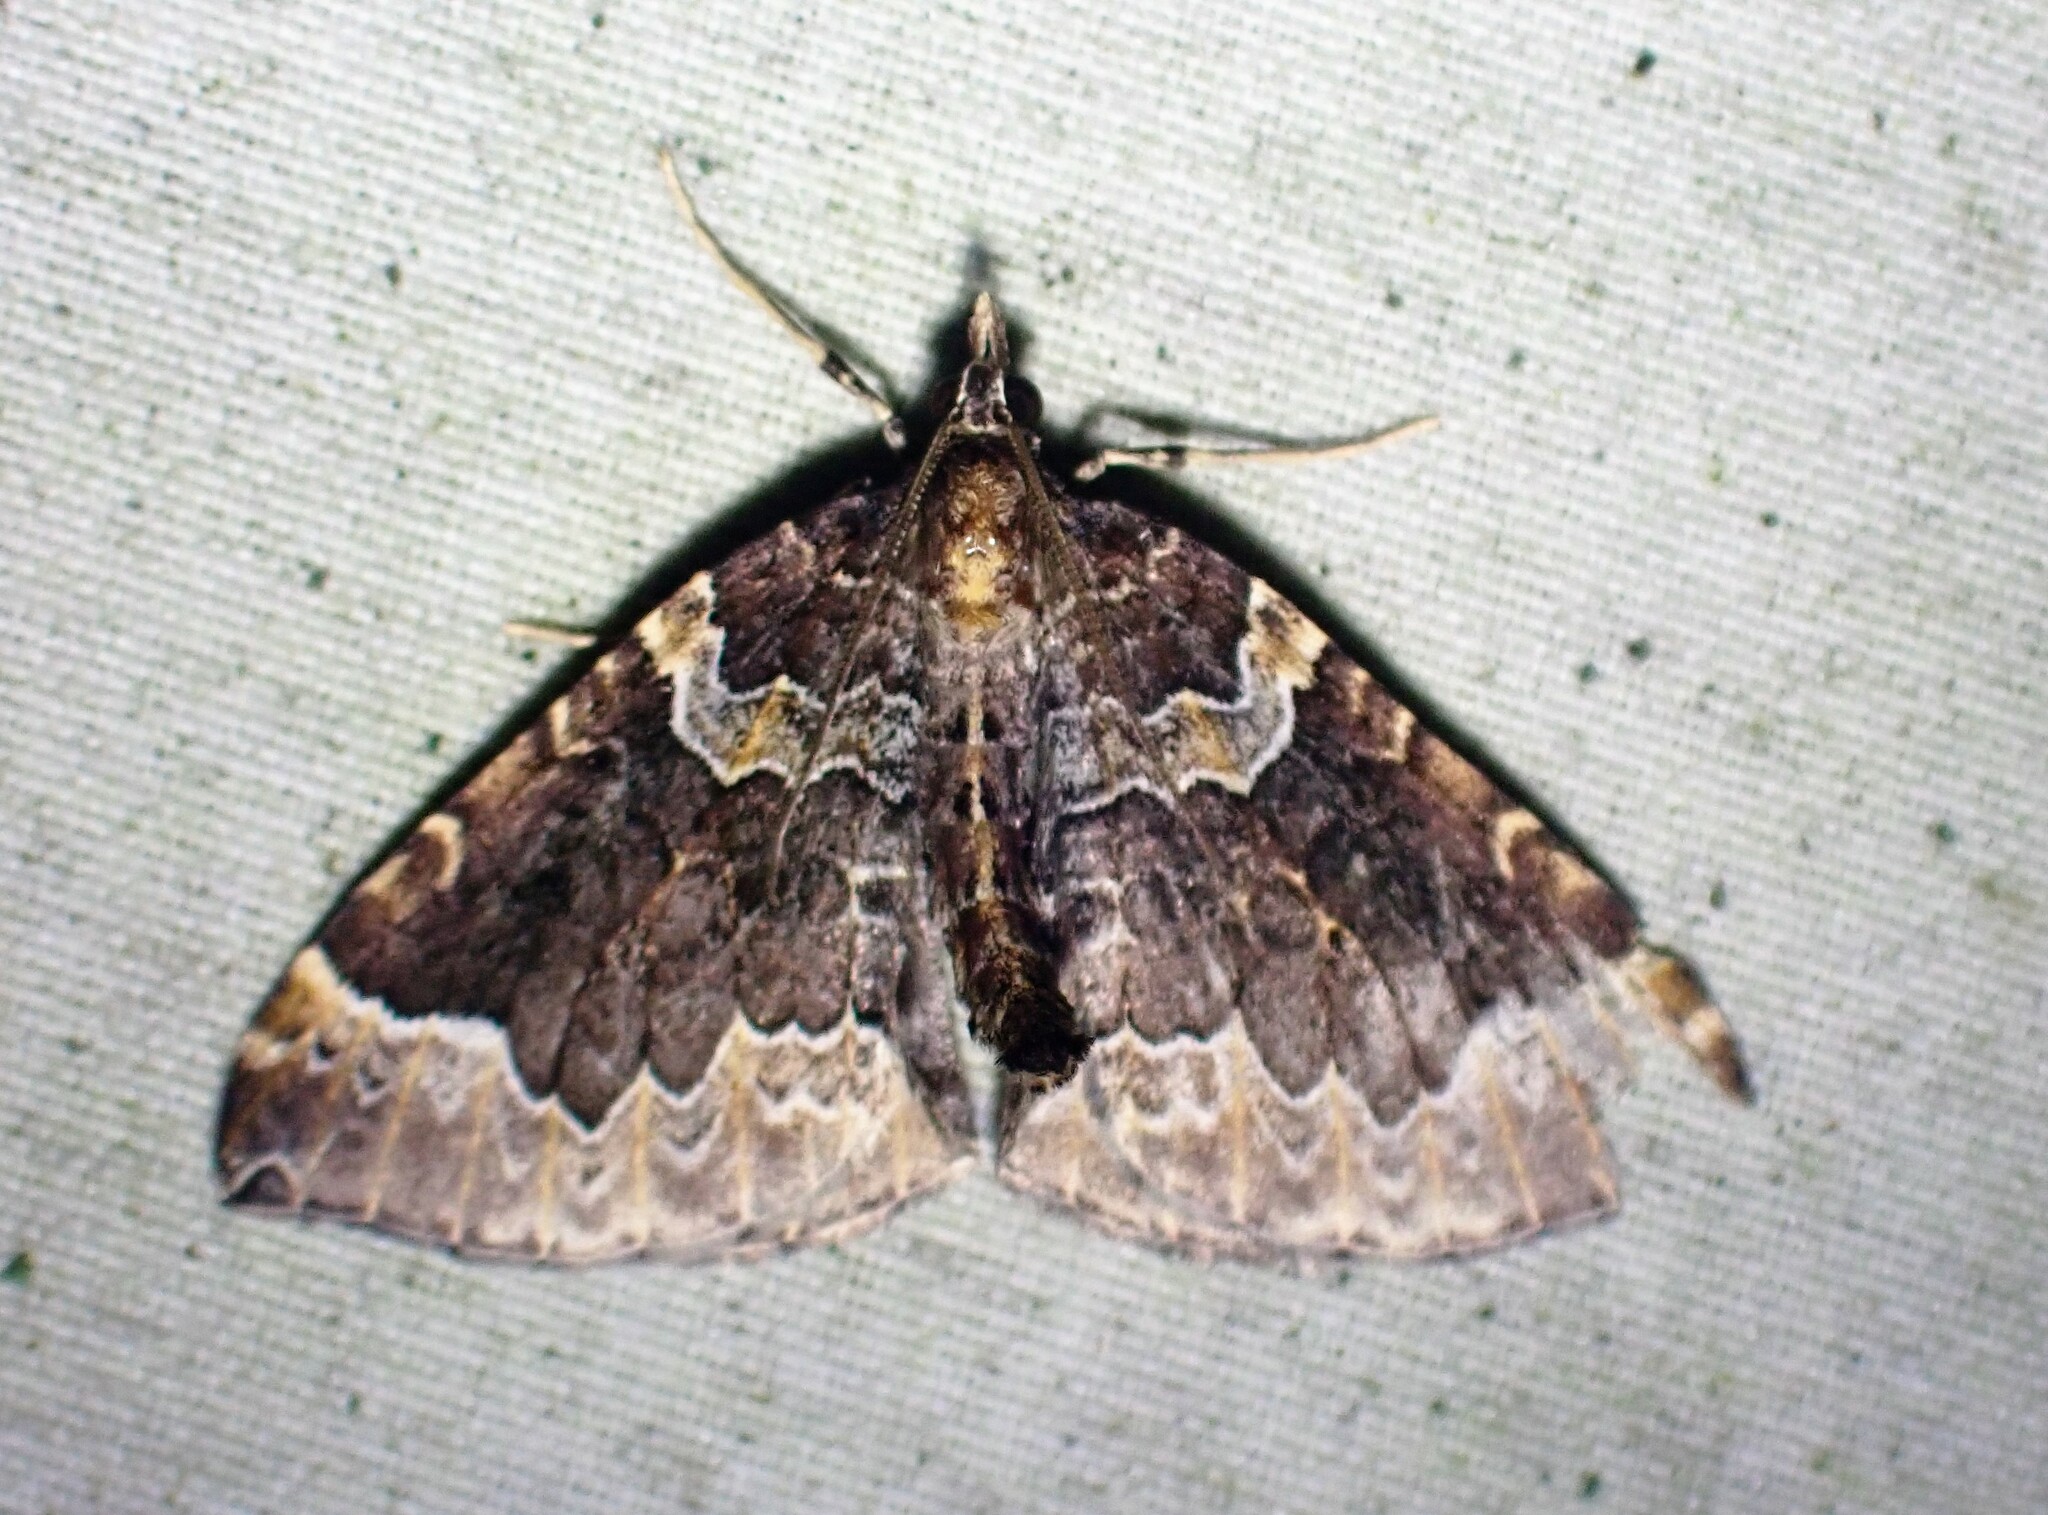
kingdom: Animalia
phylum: Arthropoda
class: Insecta
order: Lepidoptera
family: Geometridae
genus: Eulithis
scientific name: Eulithis flavibrunneata
